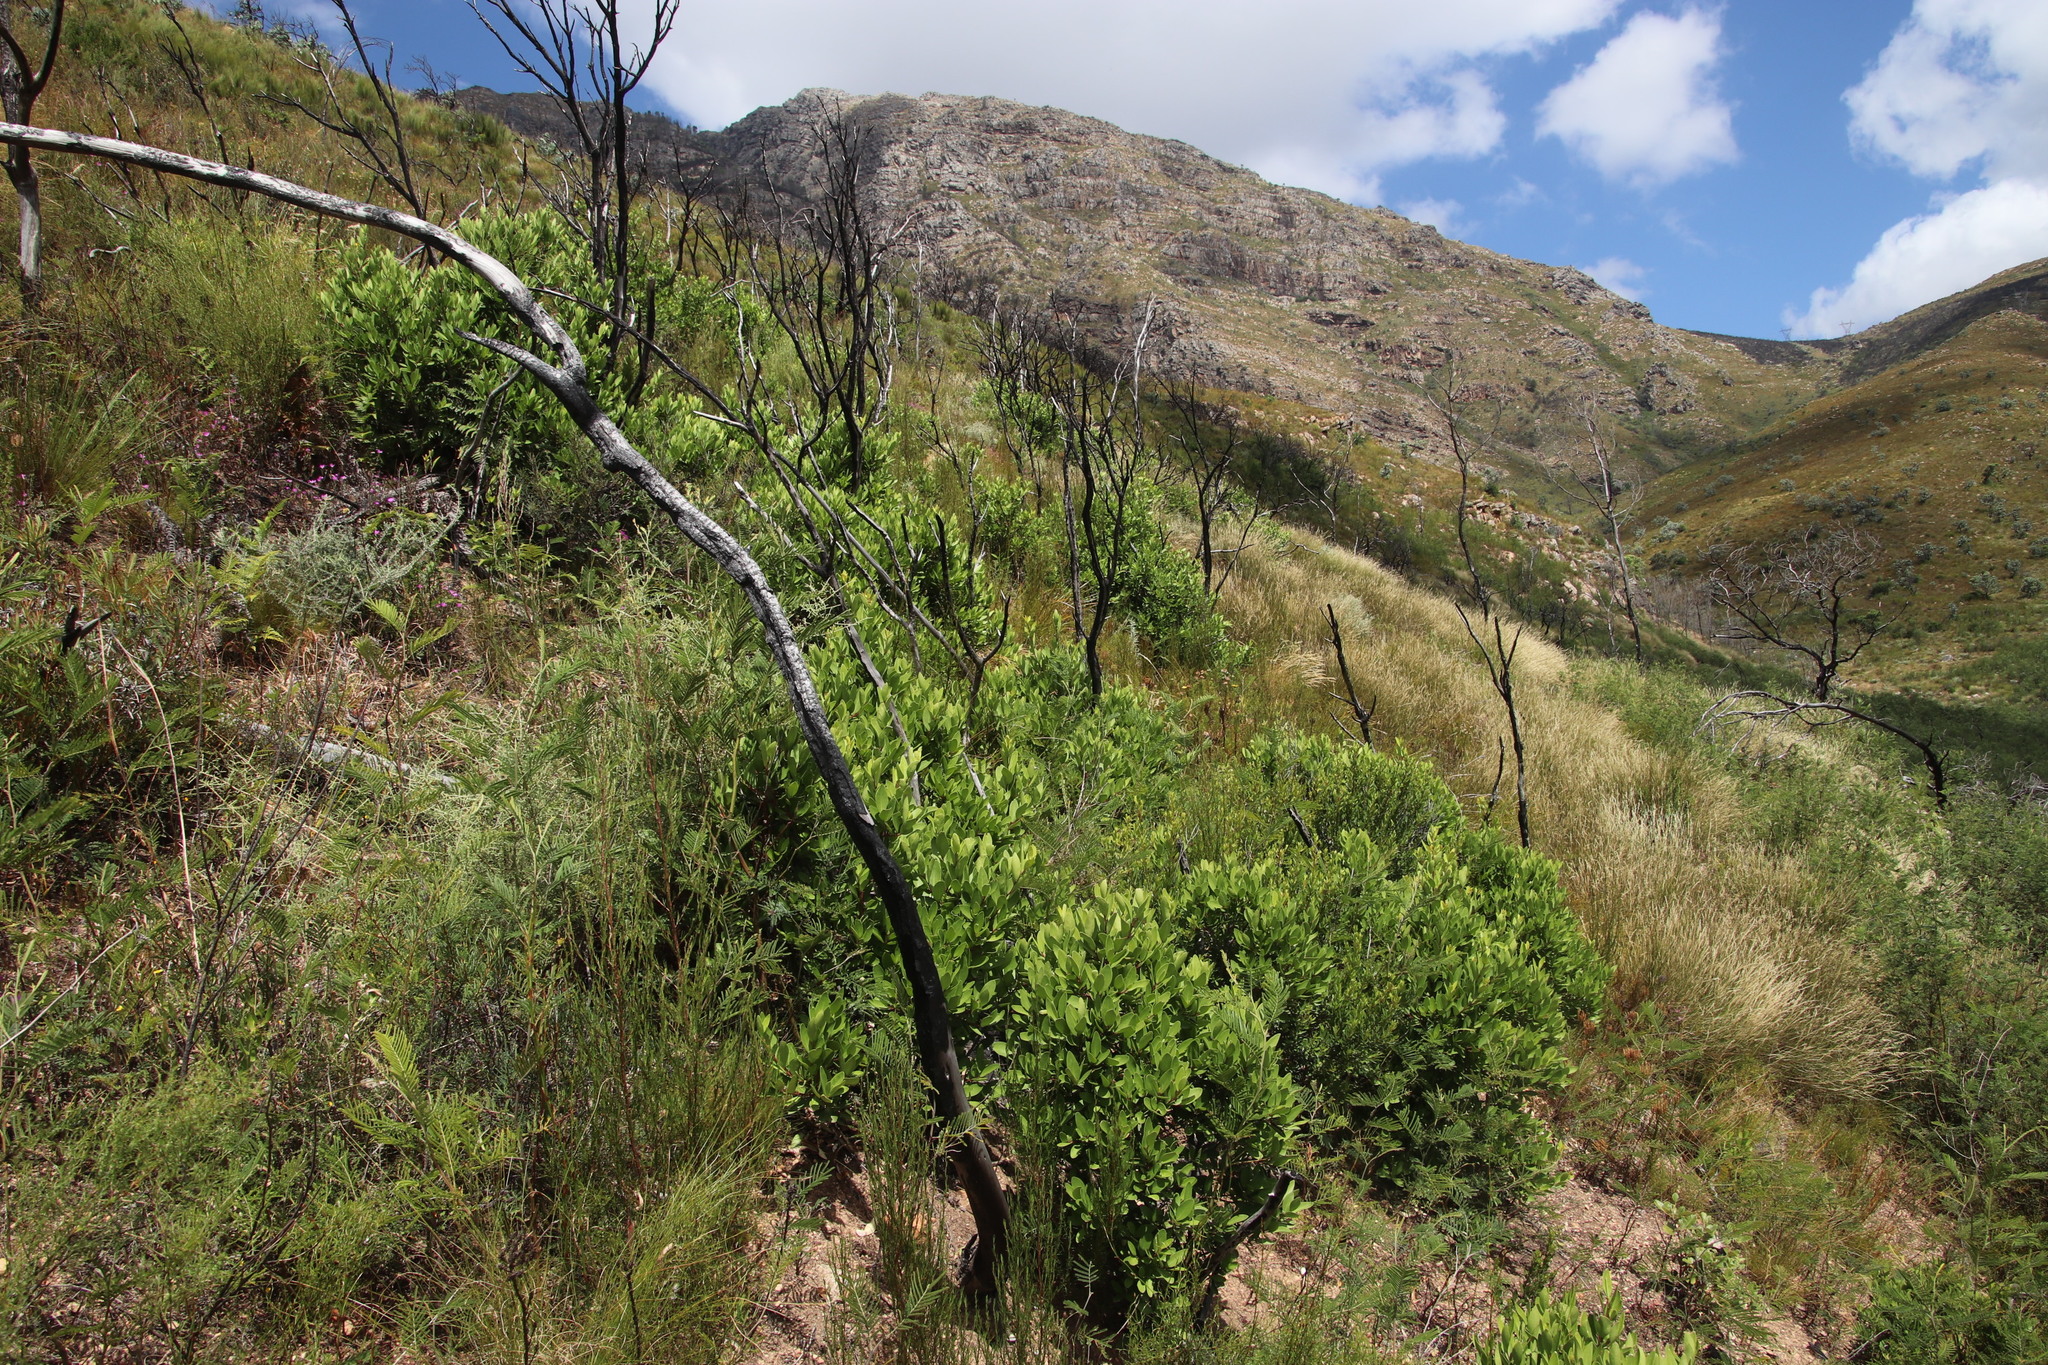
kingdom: Plantae
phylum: Tracheophyta
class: Magnoliopsida
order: Celastrales
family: Celastraceae
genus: Gymnosporia
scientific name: Gymnosporia laurina
